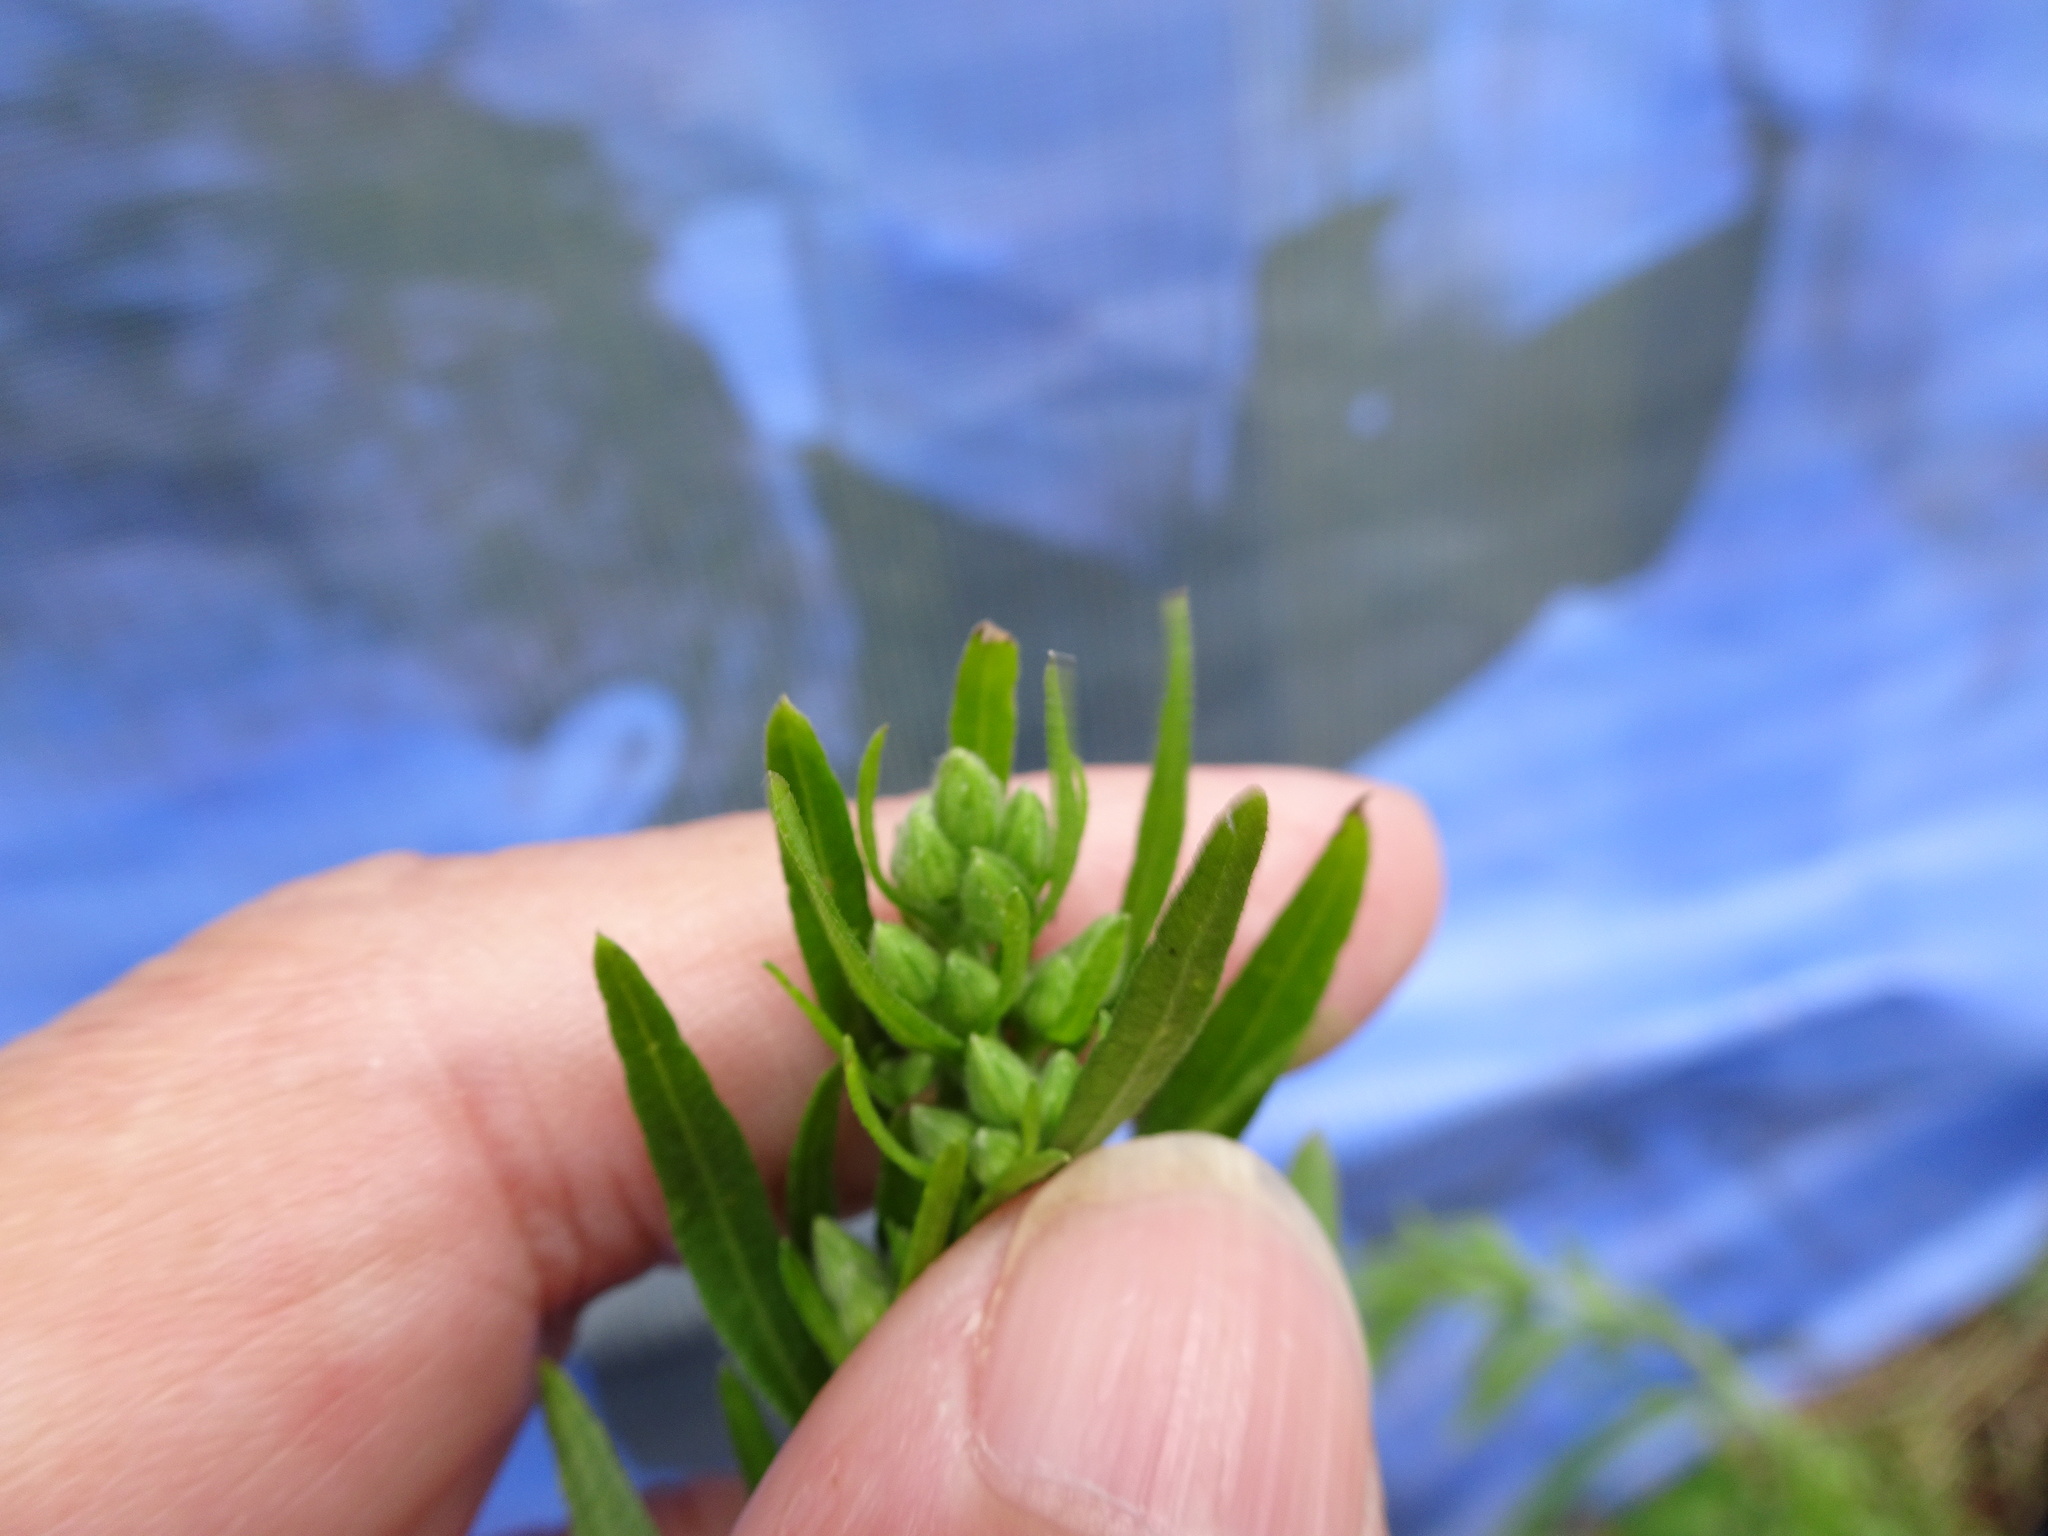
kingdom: Plantae
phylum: Tracheophyta
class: Magnoliopsida
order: Asterales
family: Asteraceae
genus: Erigeron
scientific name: Erigeron sumatrensis
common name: Daisy
